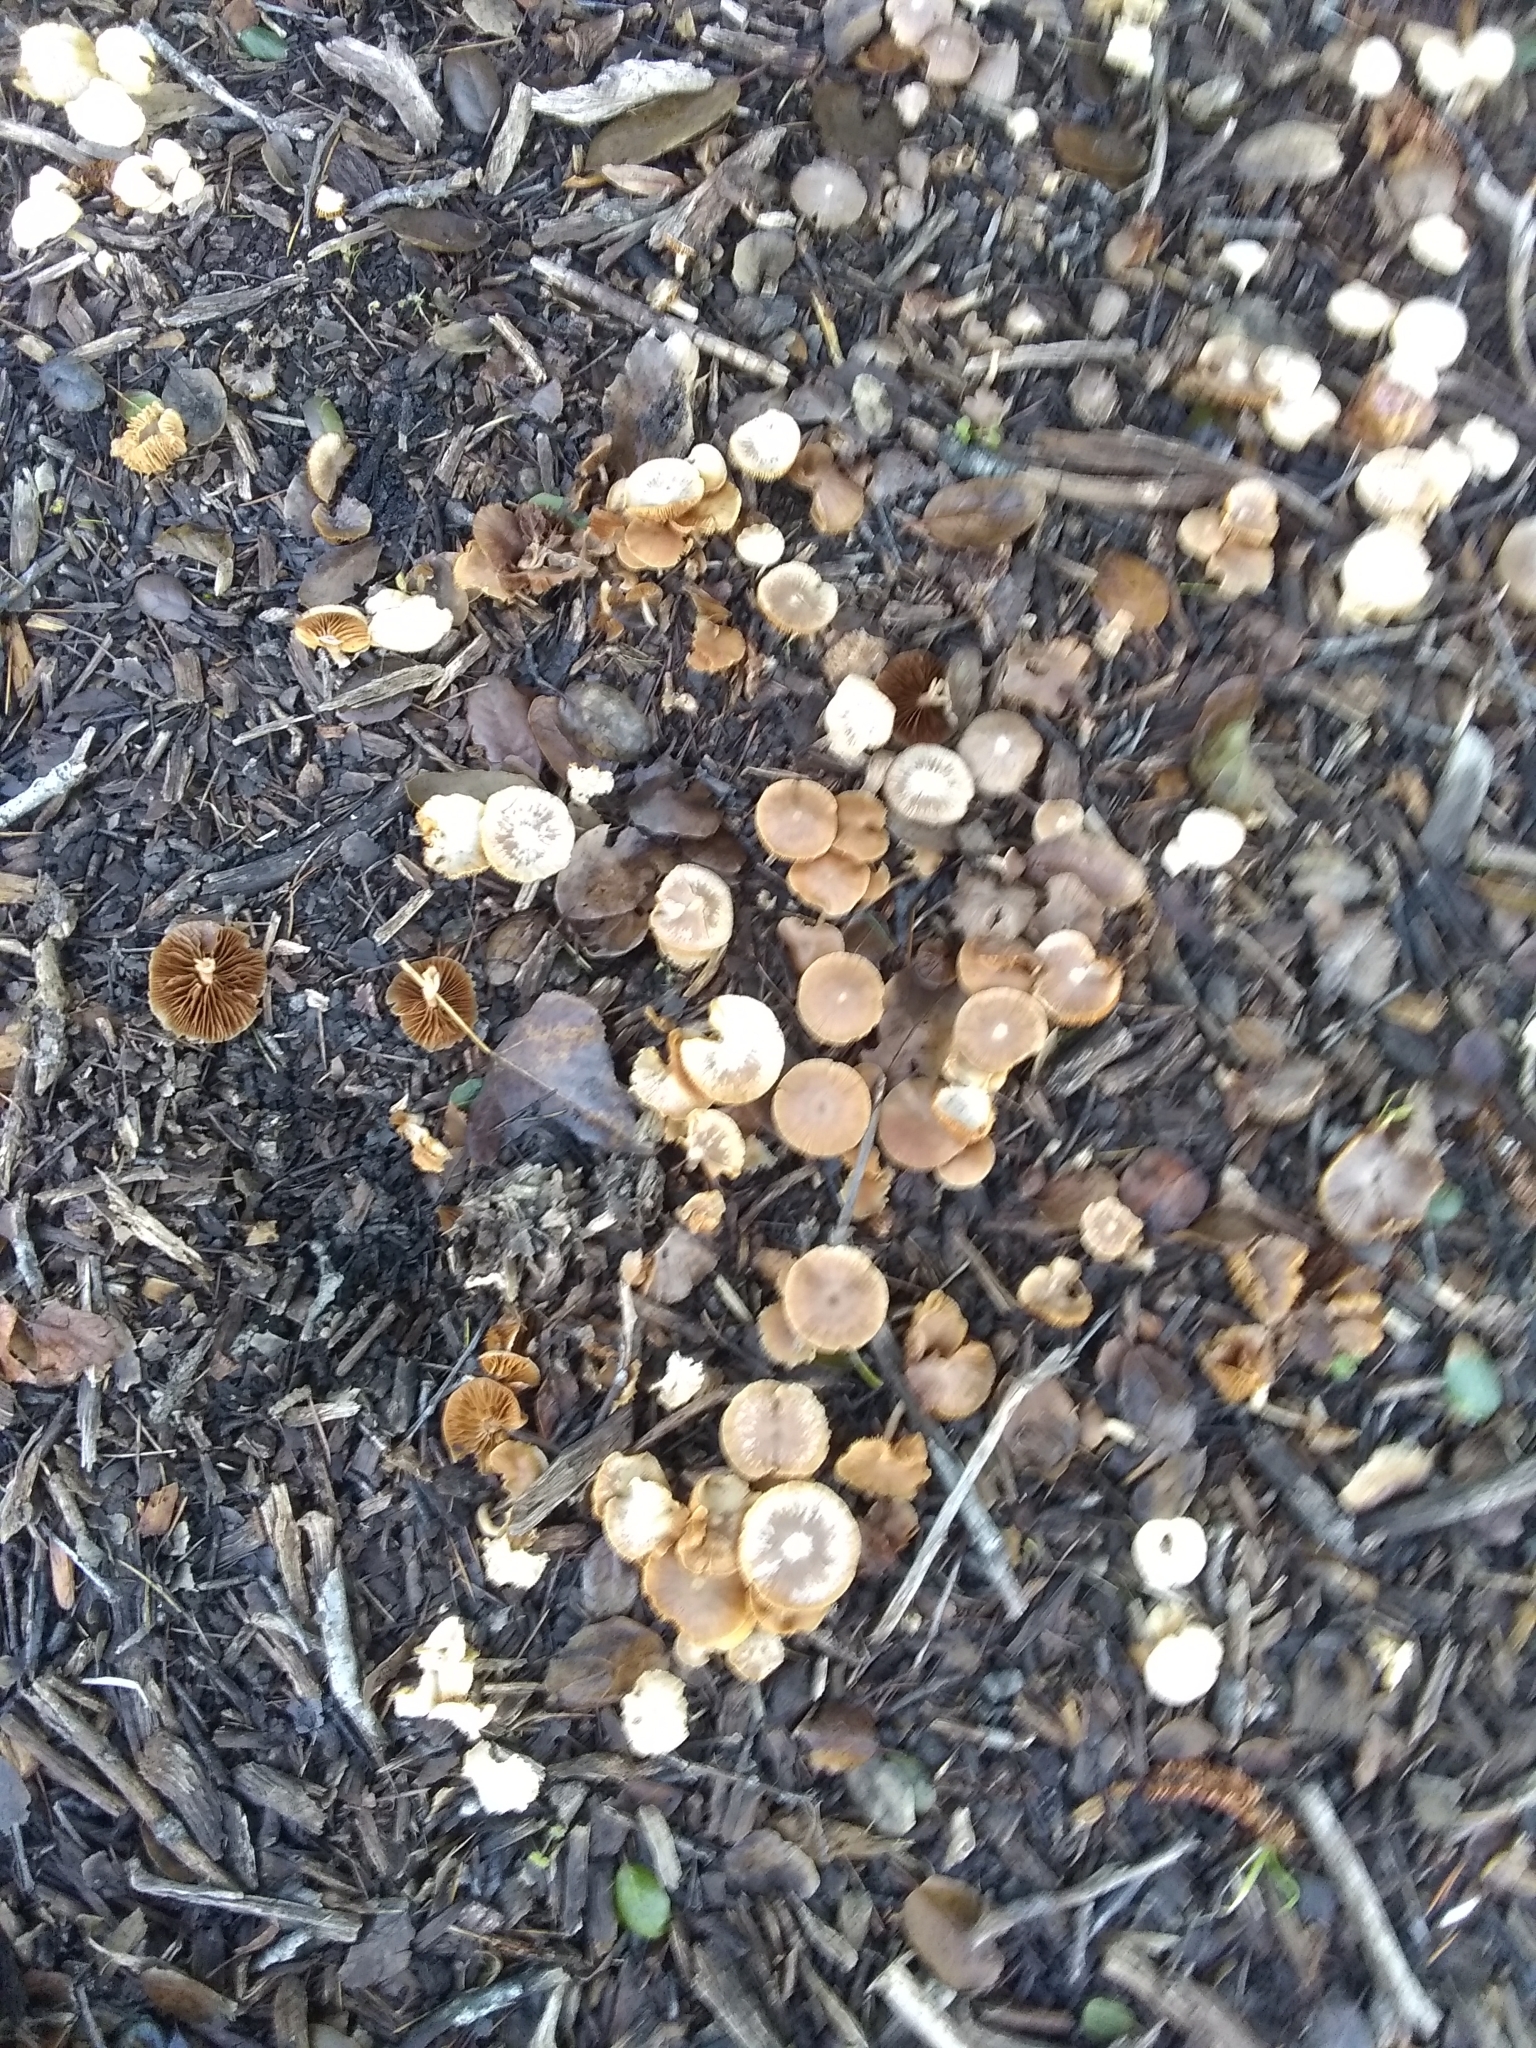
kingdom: Fungi
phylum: Basidiomycota
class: Agaricomycetes
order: Agaricales
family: Tubariaceae
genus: Tubaria
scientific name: Tubaria furfuracea
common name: Scurfy twiglet
